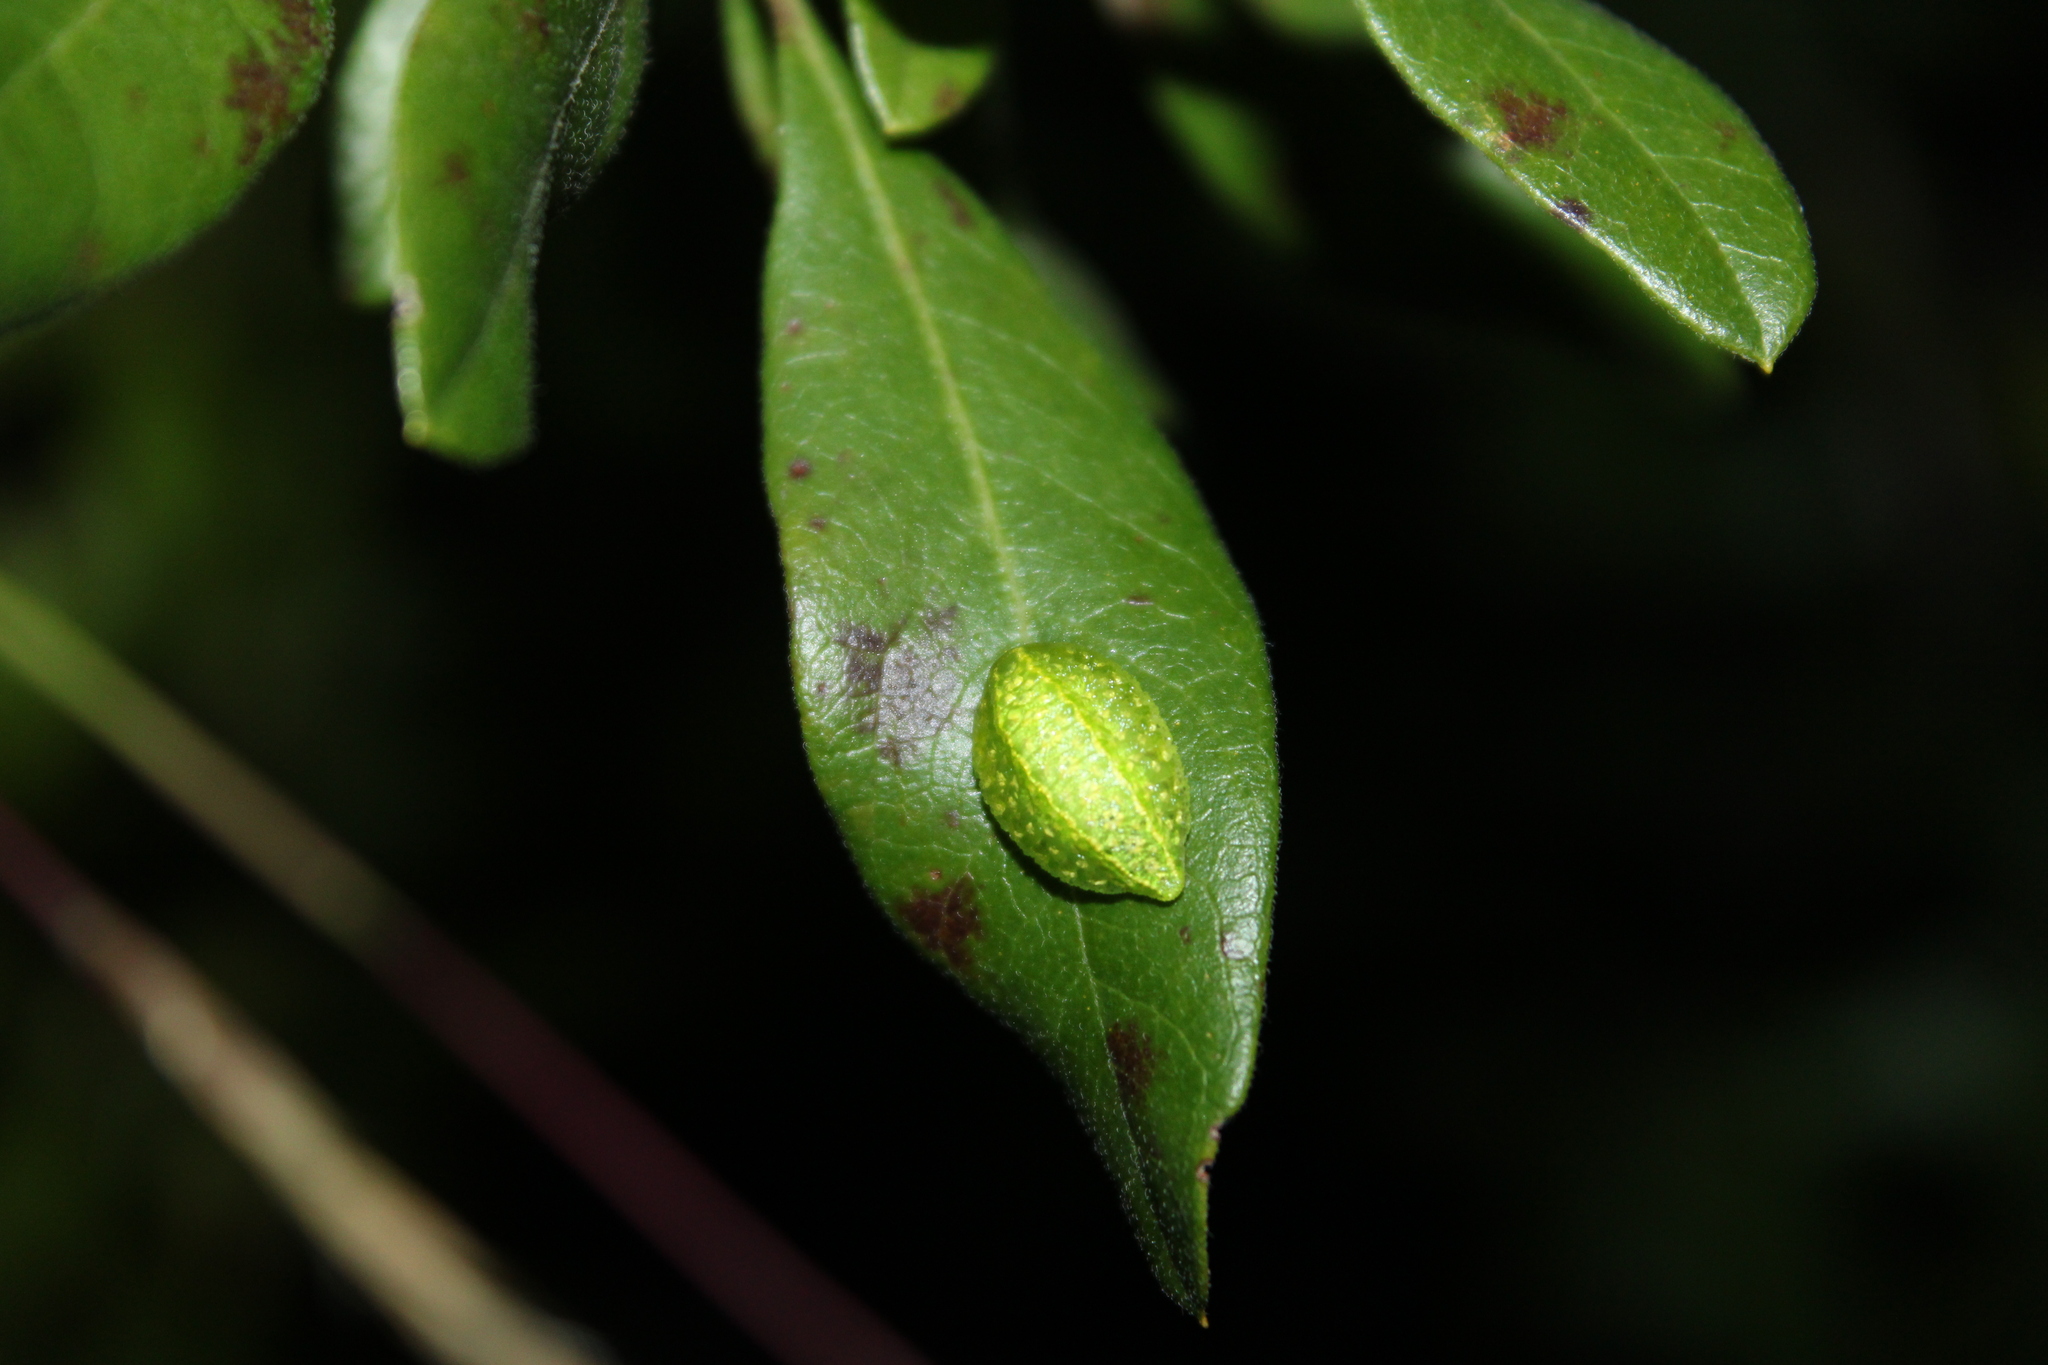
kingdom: Animalia
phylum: Arthropoda
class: Insecta
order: Lepidoptera
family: Limacodidae
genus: Lithacodes
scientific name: Lithacodes fasciola
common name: Yellow-shouldered slug moth
